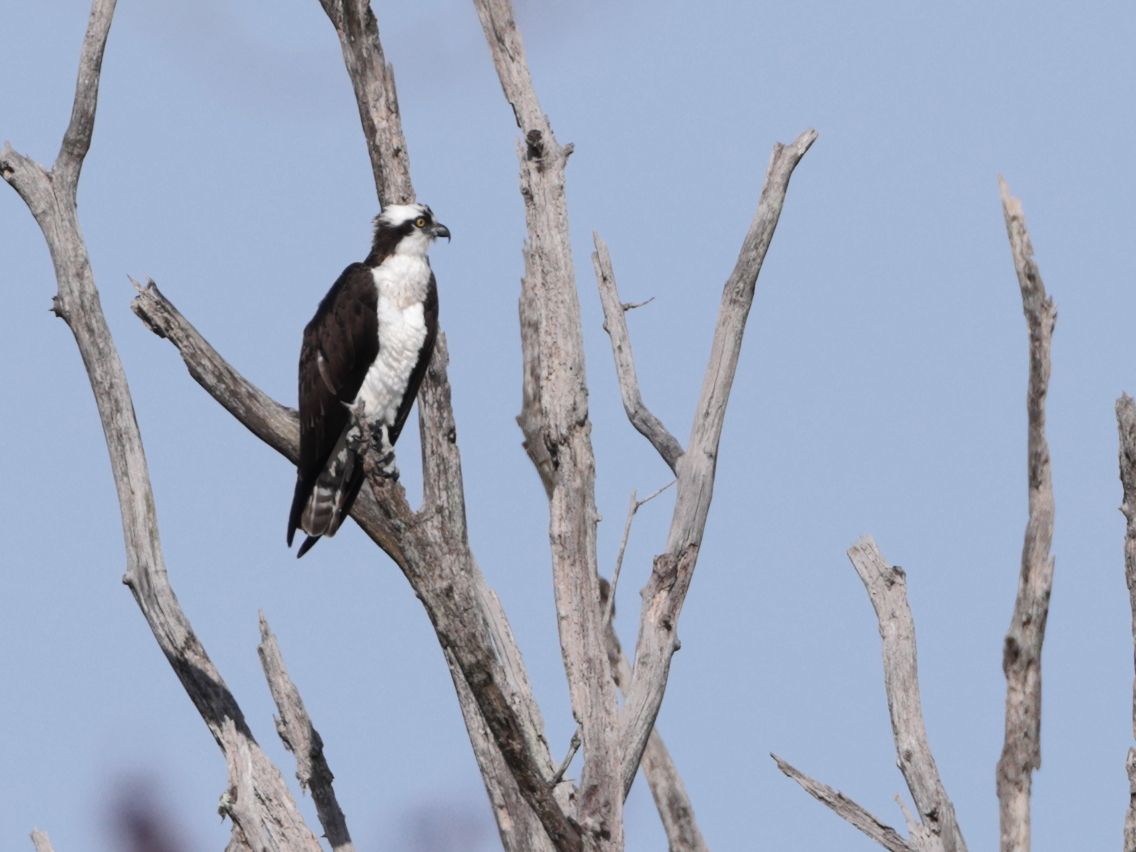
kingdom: Animalia
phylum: Chordata
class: Aves
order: Accipitriformes
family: Pandionidae
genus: Pandion
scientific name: Pandion haliaetus
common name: Osprey
